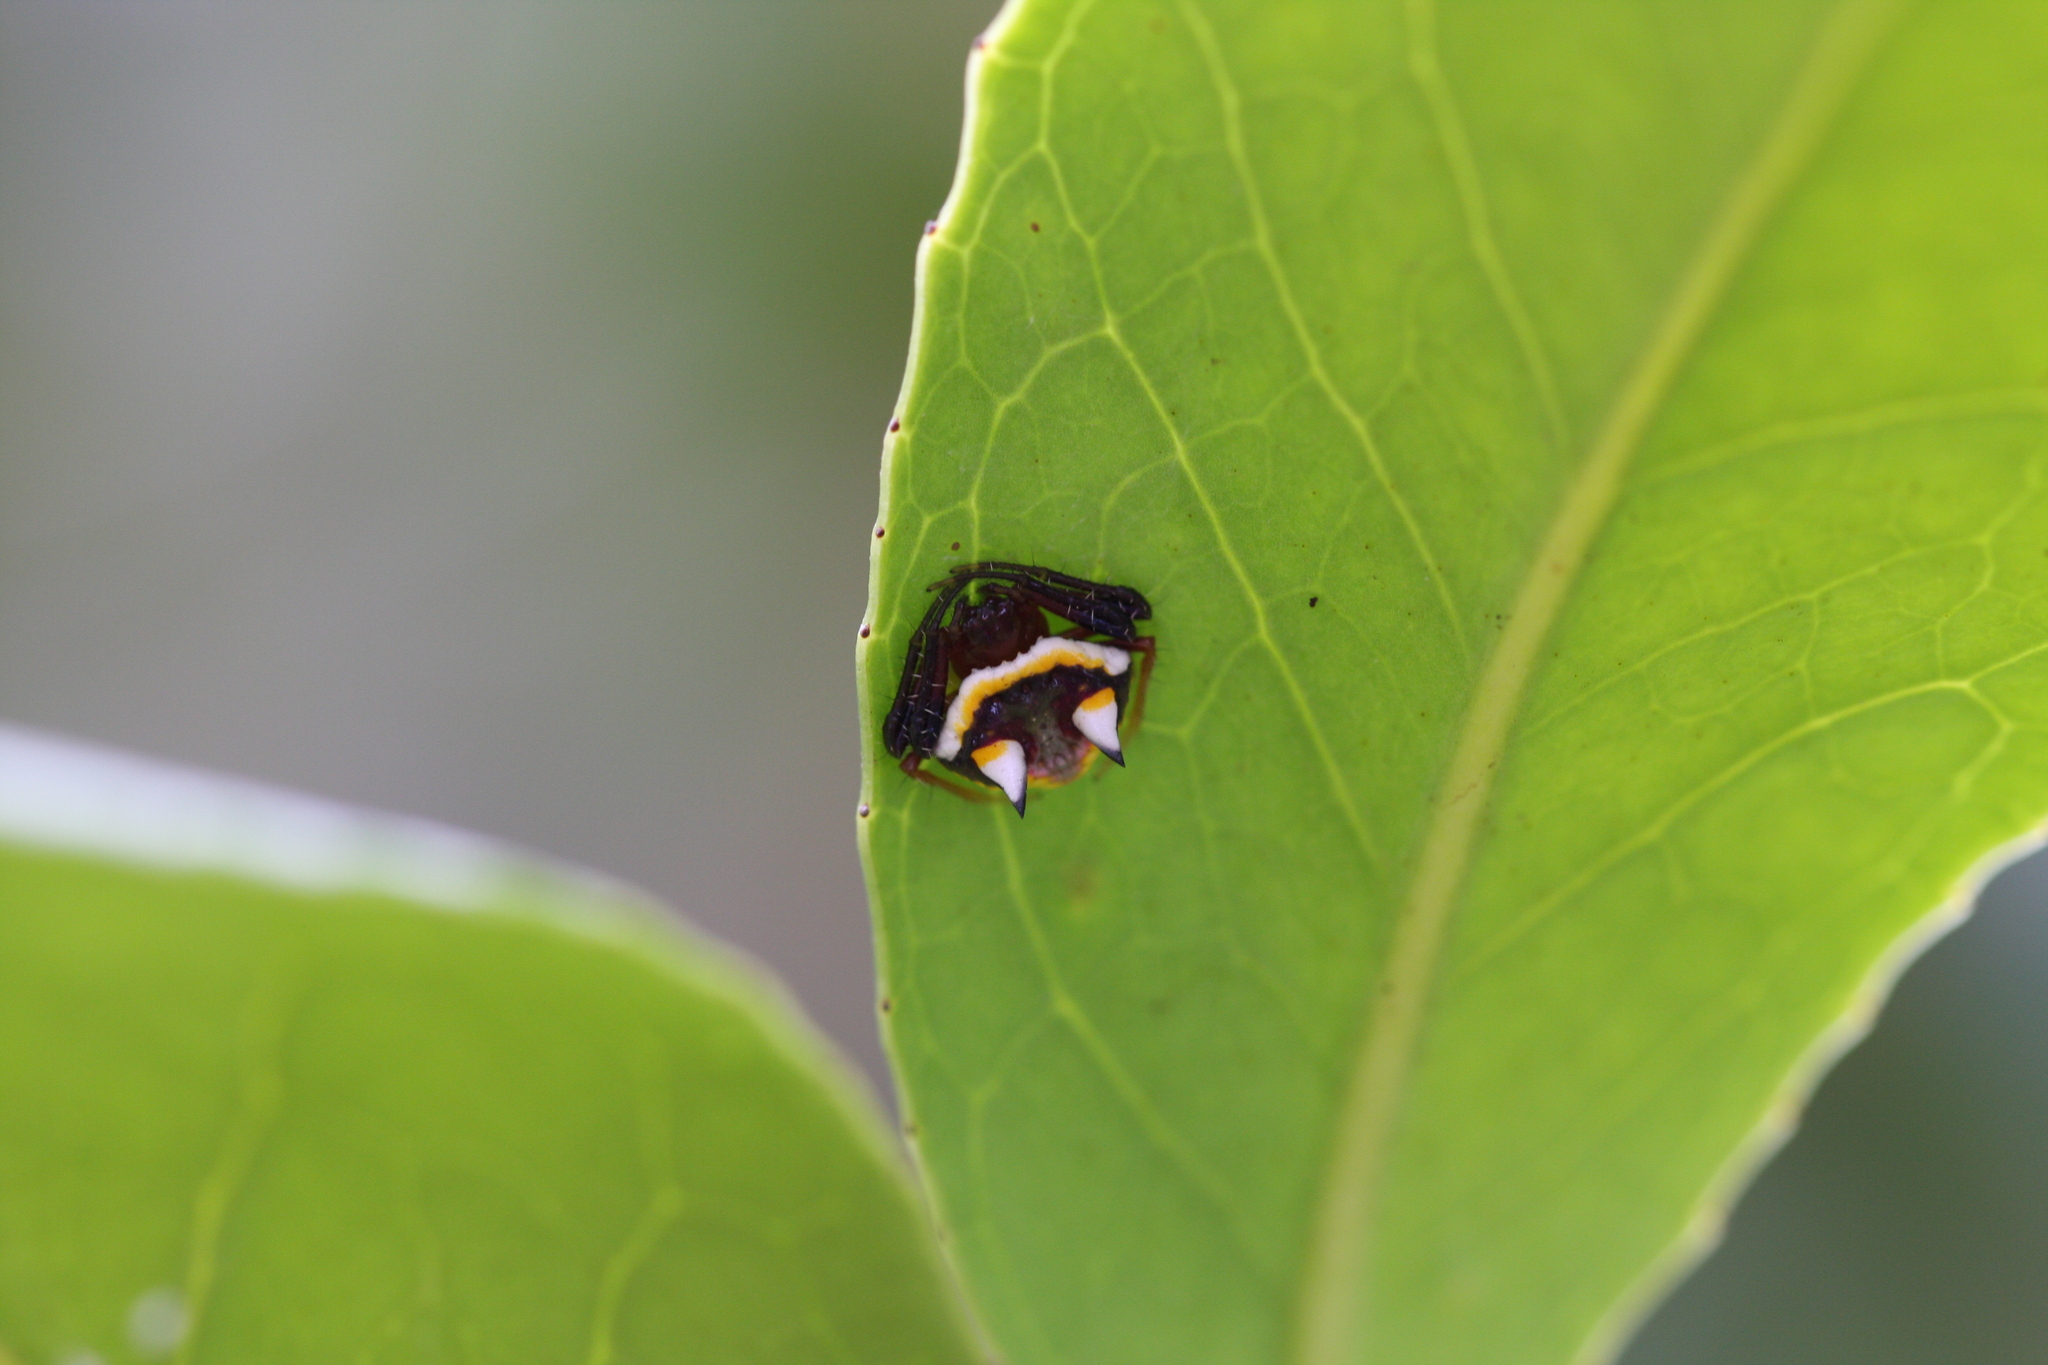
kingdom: Animalia
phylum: Arthropoda
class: Arachnida
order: Araneae
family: Araneidae
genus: Poecilopachys
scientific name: Poecilopachys australasia
